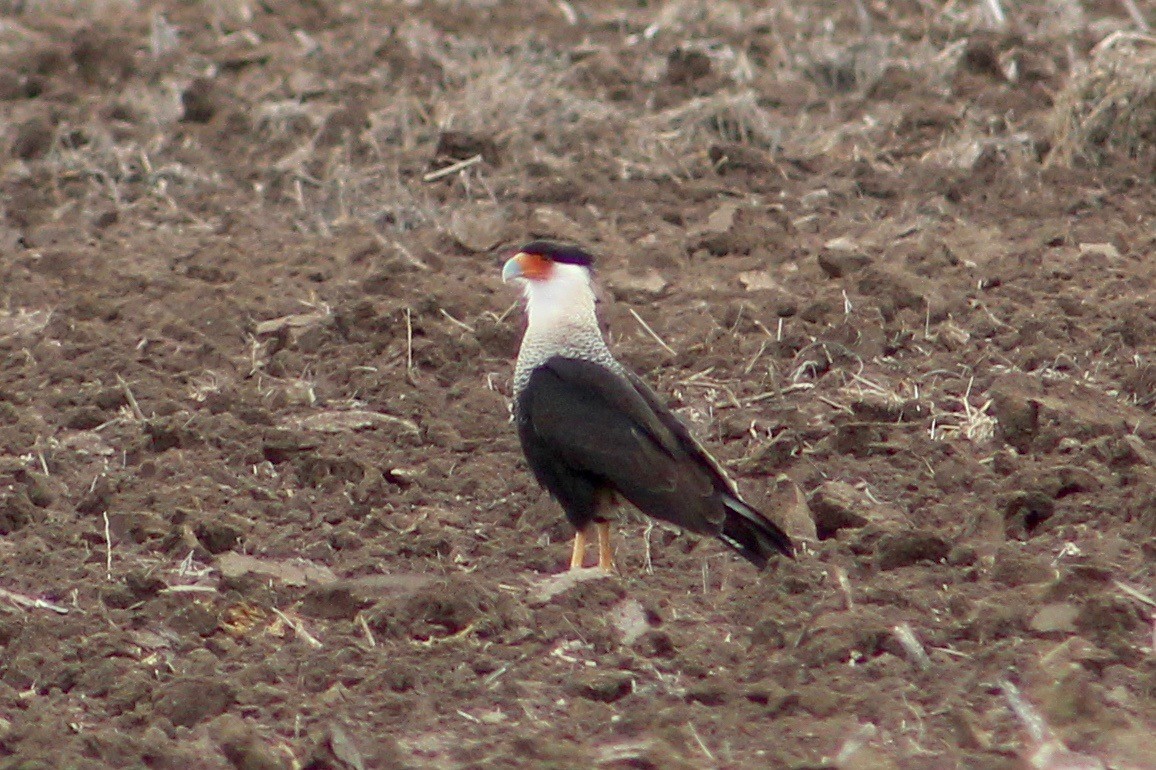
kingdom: Animalia
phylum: Chordata
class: Aves
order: Falconiformes
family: Falconidae
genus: Caracara
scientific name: Caracara plancus
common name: Southern caracara
